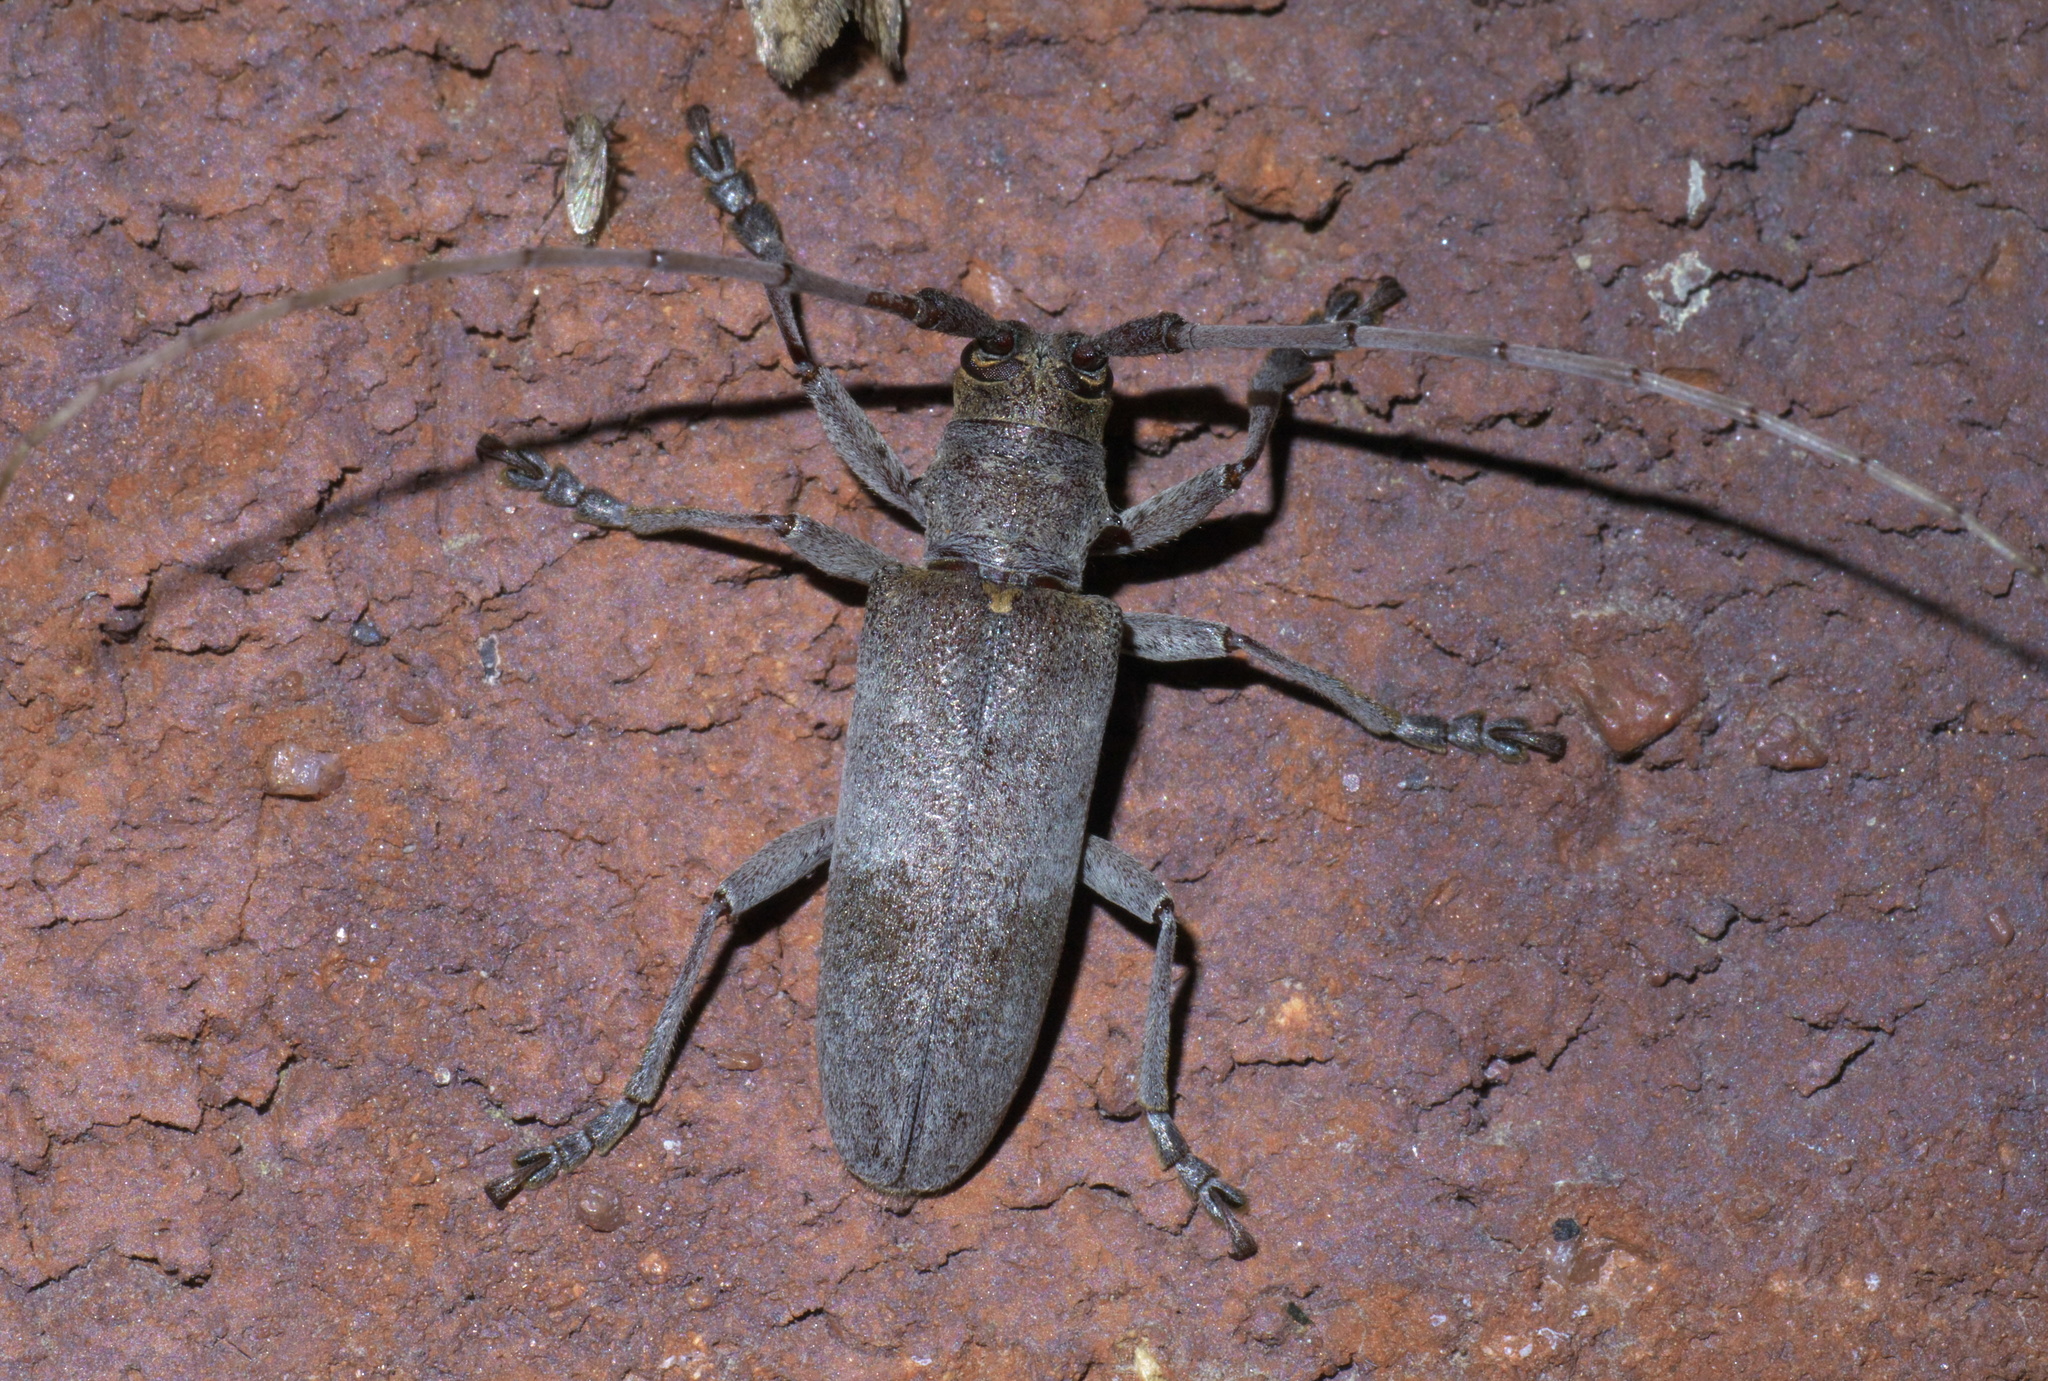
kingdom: Animalia
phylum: Arthropoda
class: Insecta
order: Coleoptera
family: Cerambycidae
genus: Goes
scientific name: Goes pulverulentus
